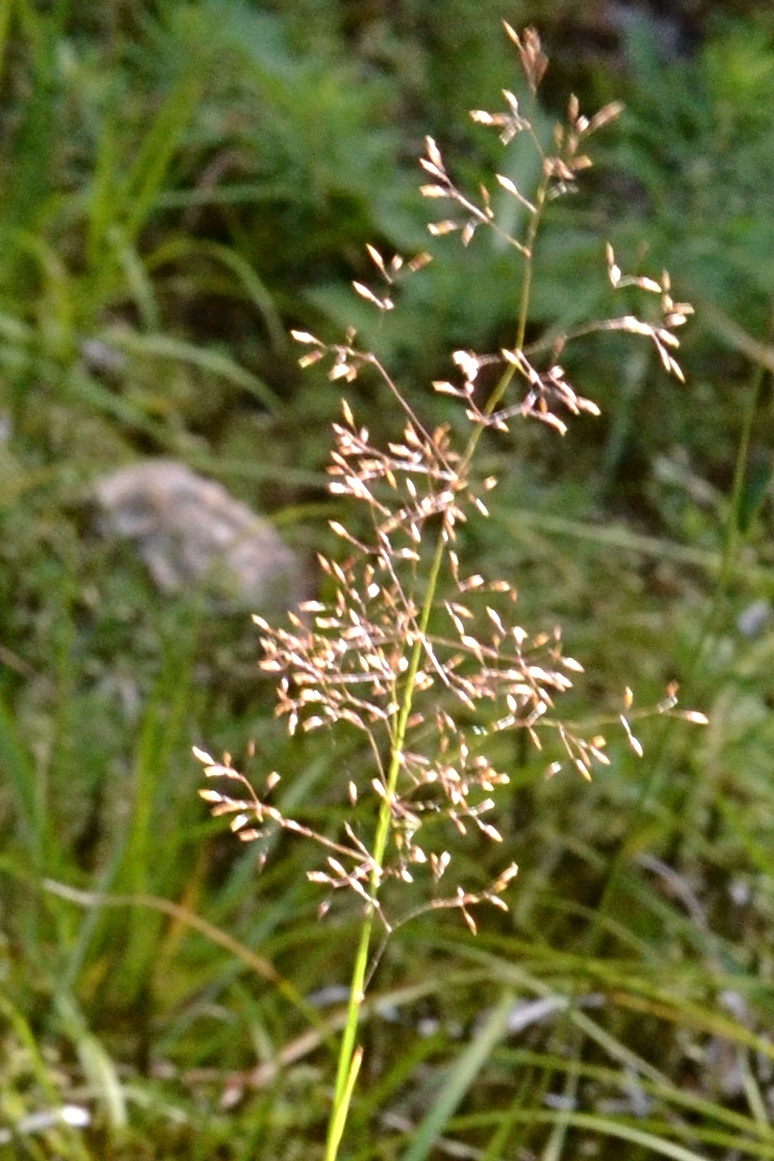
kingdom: Plantae
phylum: Tracheophyta
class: Liliopsida
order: Poales
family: Poaceae
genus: Agrostis
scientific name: Agrostis capillaris
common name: Colonial bentgrass
